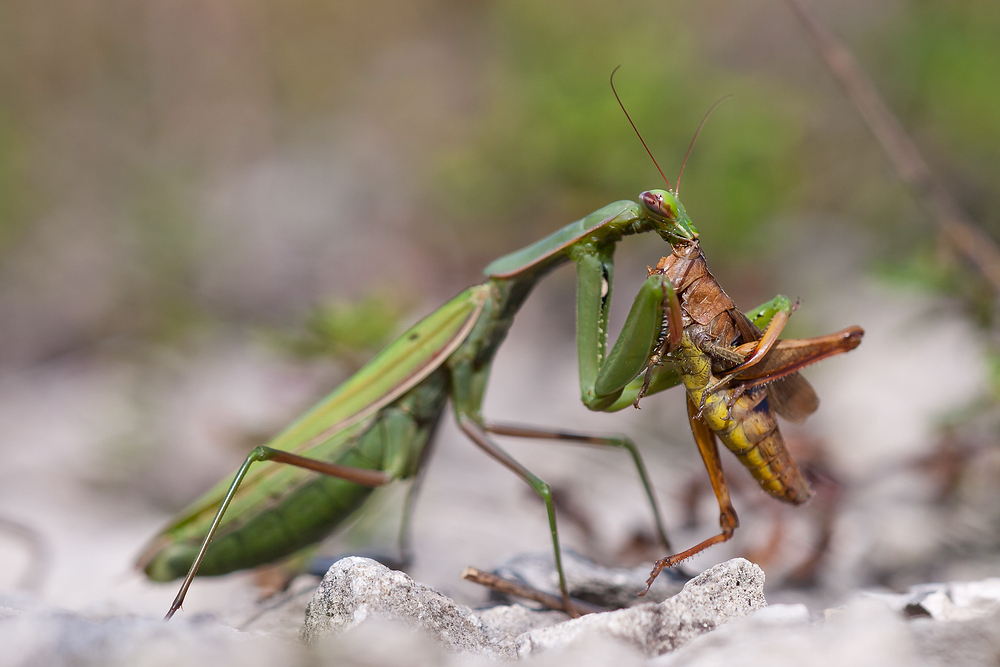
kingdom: Animalia
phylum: Arthropoda
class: Insecta
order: Mantodea
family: Mantidae
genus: Mantis
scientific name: Mantis religiosa
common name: Praying mantis
